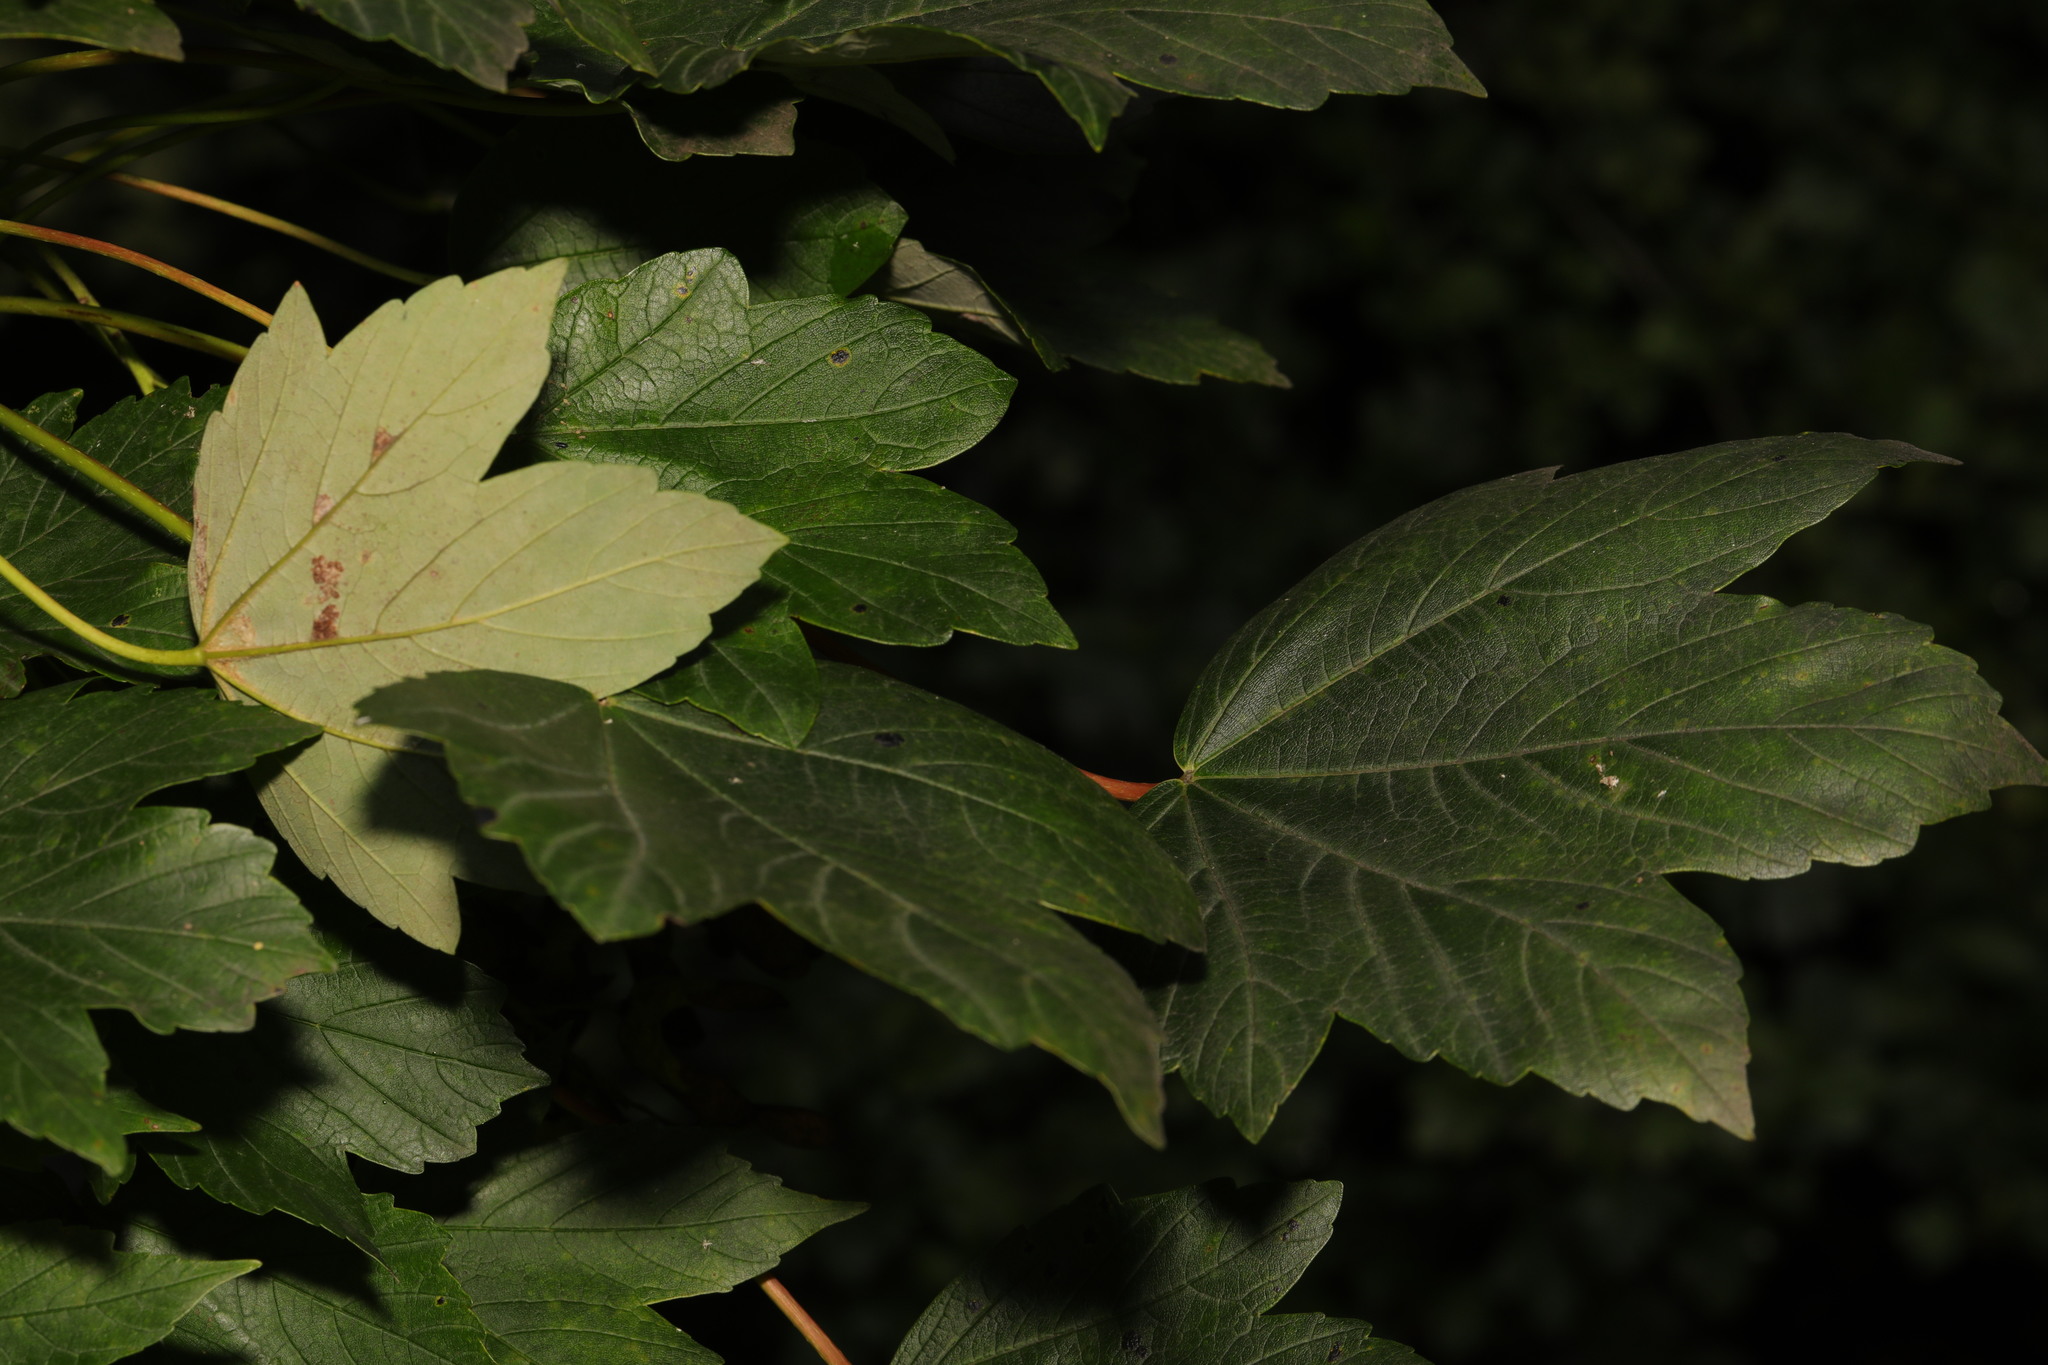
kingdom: Animalia
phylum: Arthropoda
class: Arachnida
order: Trombidiformes
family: Eriophyidae
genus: Aceria
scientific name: Aceria pseudoplatani
